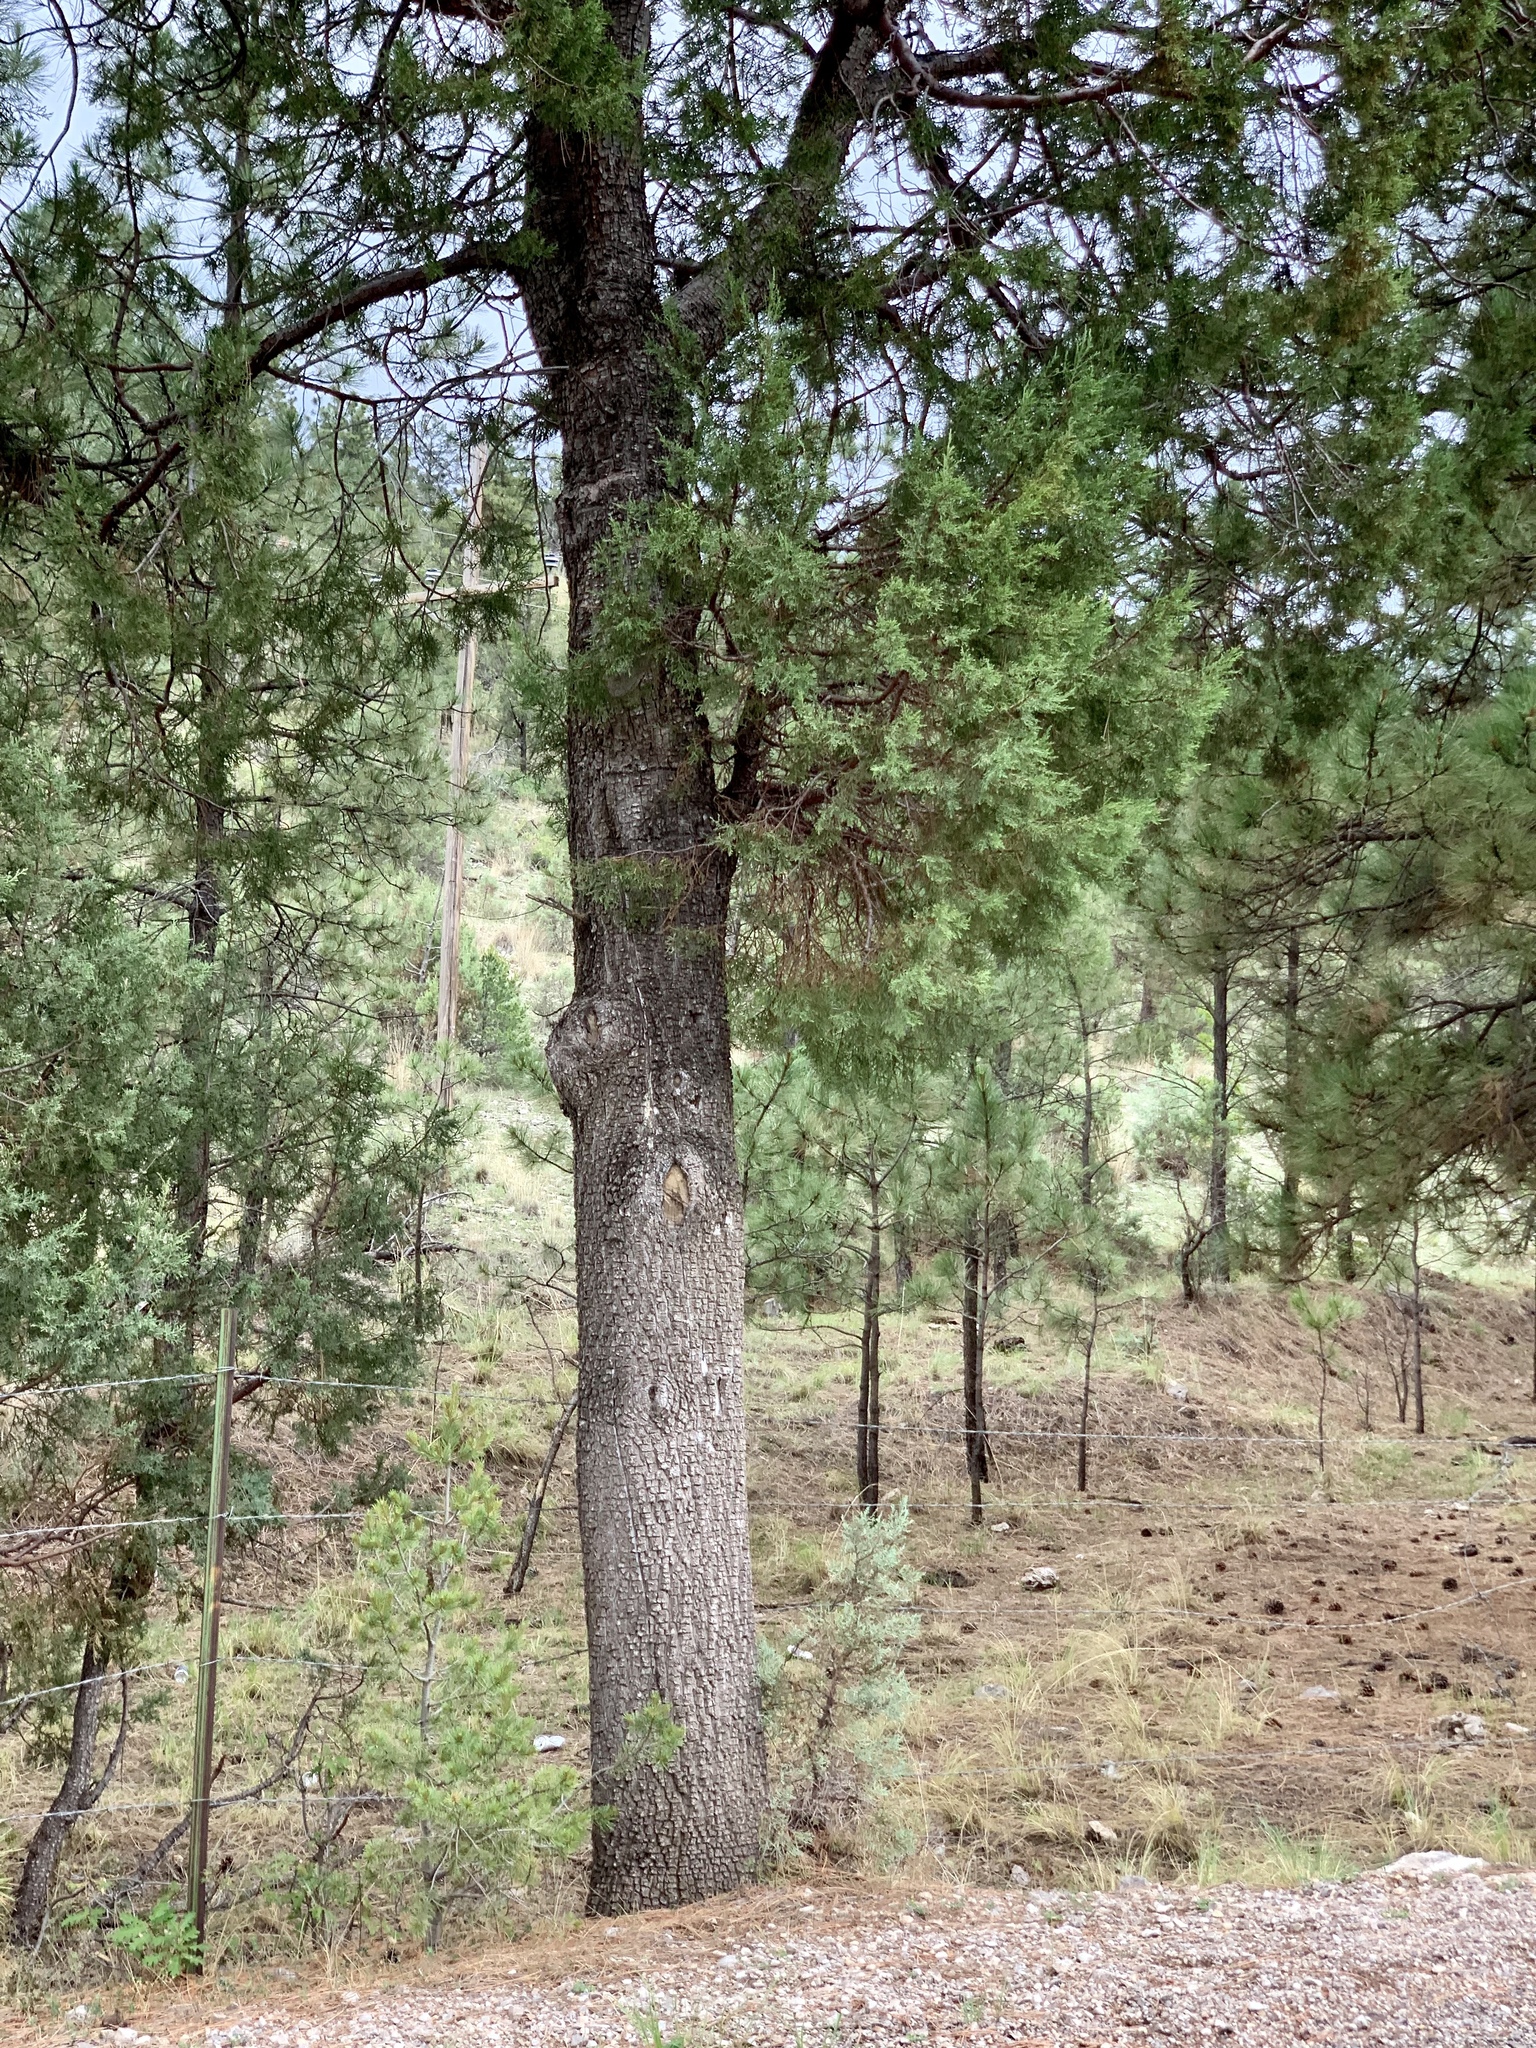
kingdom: Plantae
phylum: Tracheophyta
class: Pinopsida
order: Pinales
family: Cupressaceae
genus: Juniperus
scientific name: Juniperus deppeana
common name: Alligator juniper
